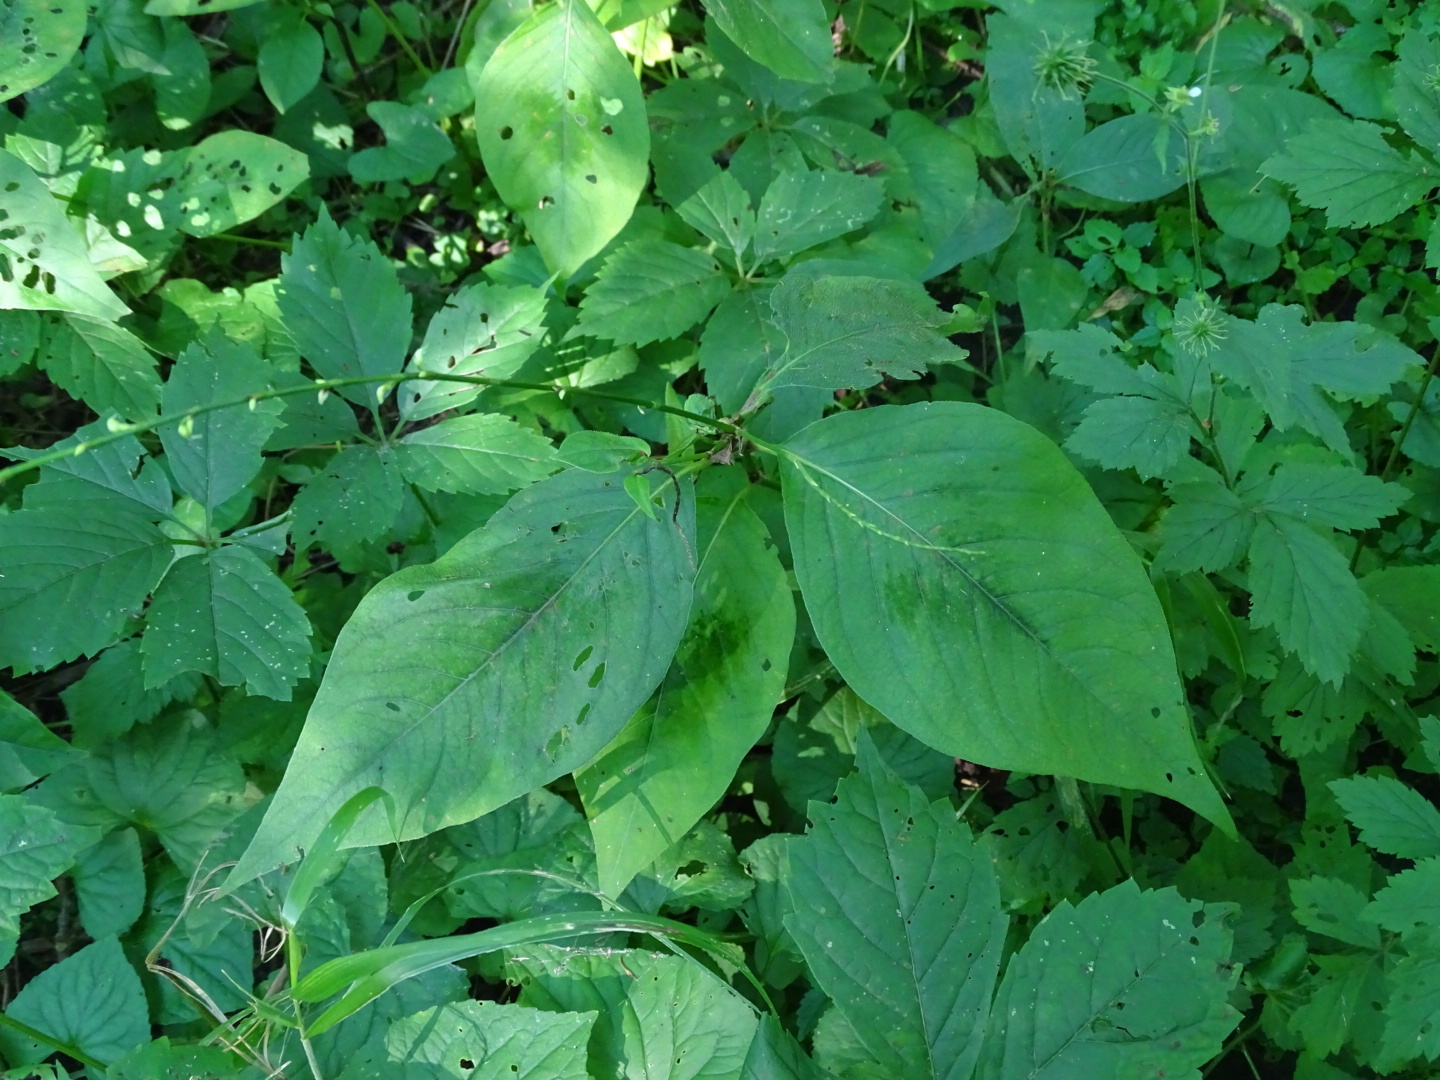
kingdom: Plantae
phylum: Tracheophyta
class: Magnoliopsida
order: Caryophyllales
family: Polygonaceae
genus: Persicaria
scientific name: Persicaria virginiana
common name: Jumpseed
